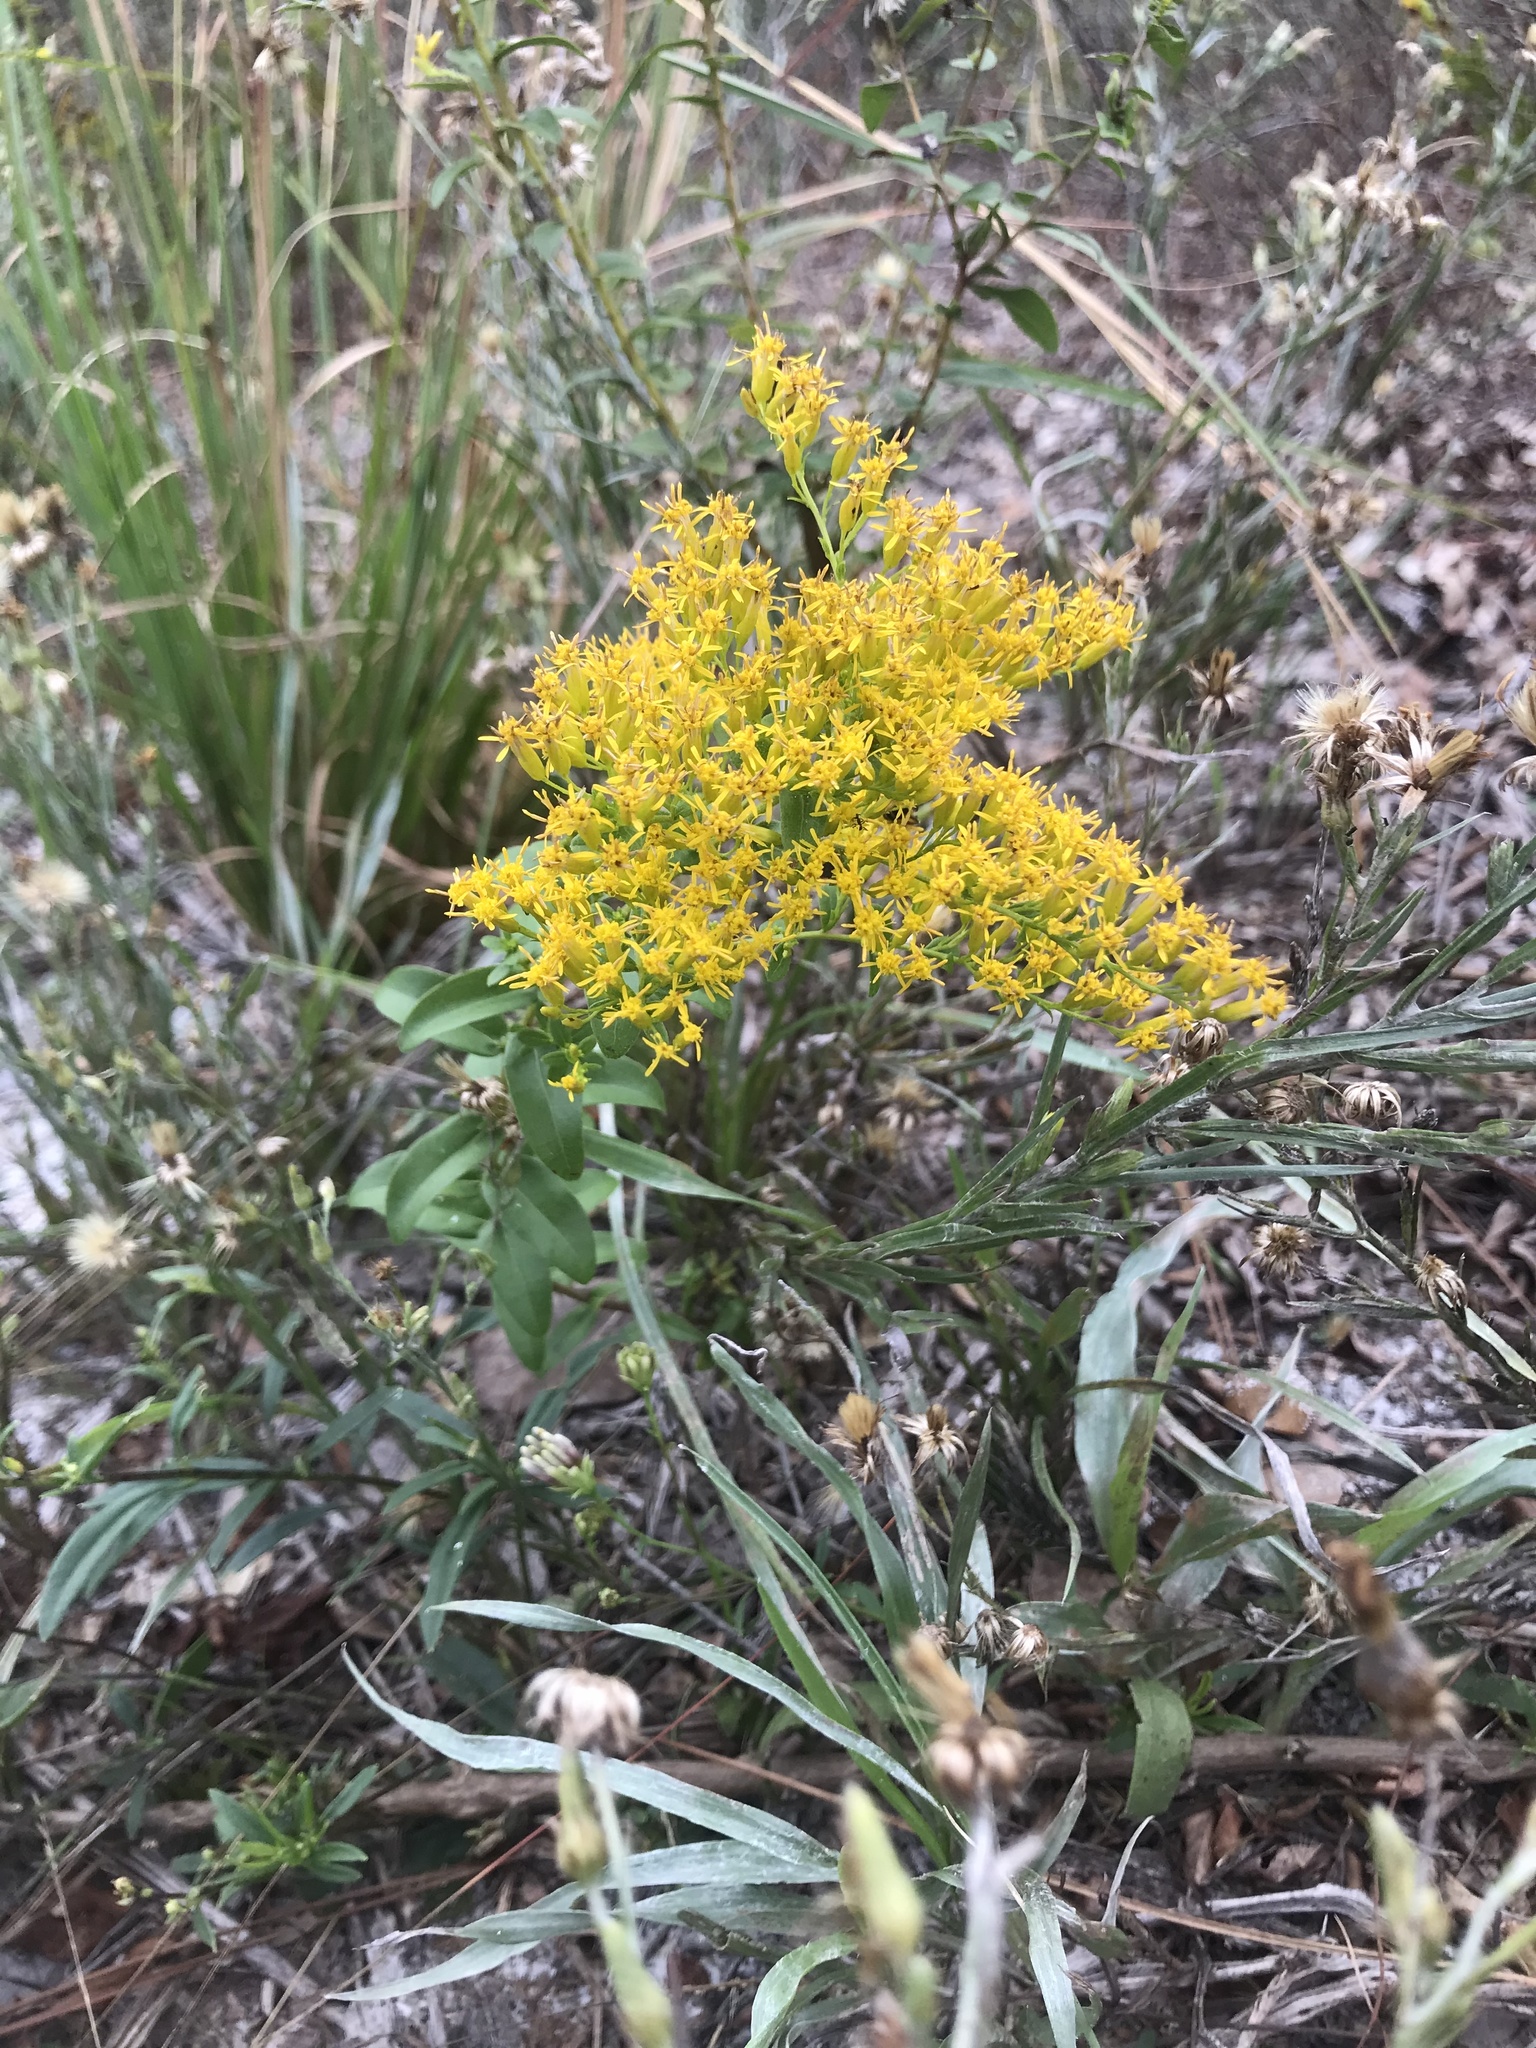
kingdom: Plantae
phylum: Tracheophyta
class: Magnoliopsida
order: Asterales
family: Asteraceae
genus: Solidago
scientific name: Solidago chapmanii
